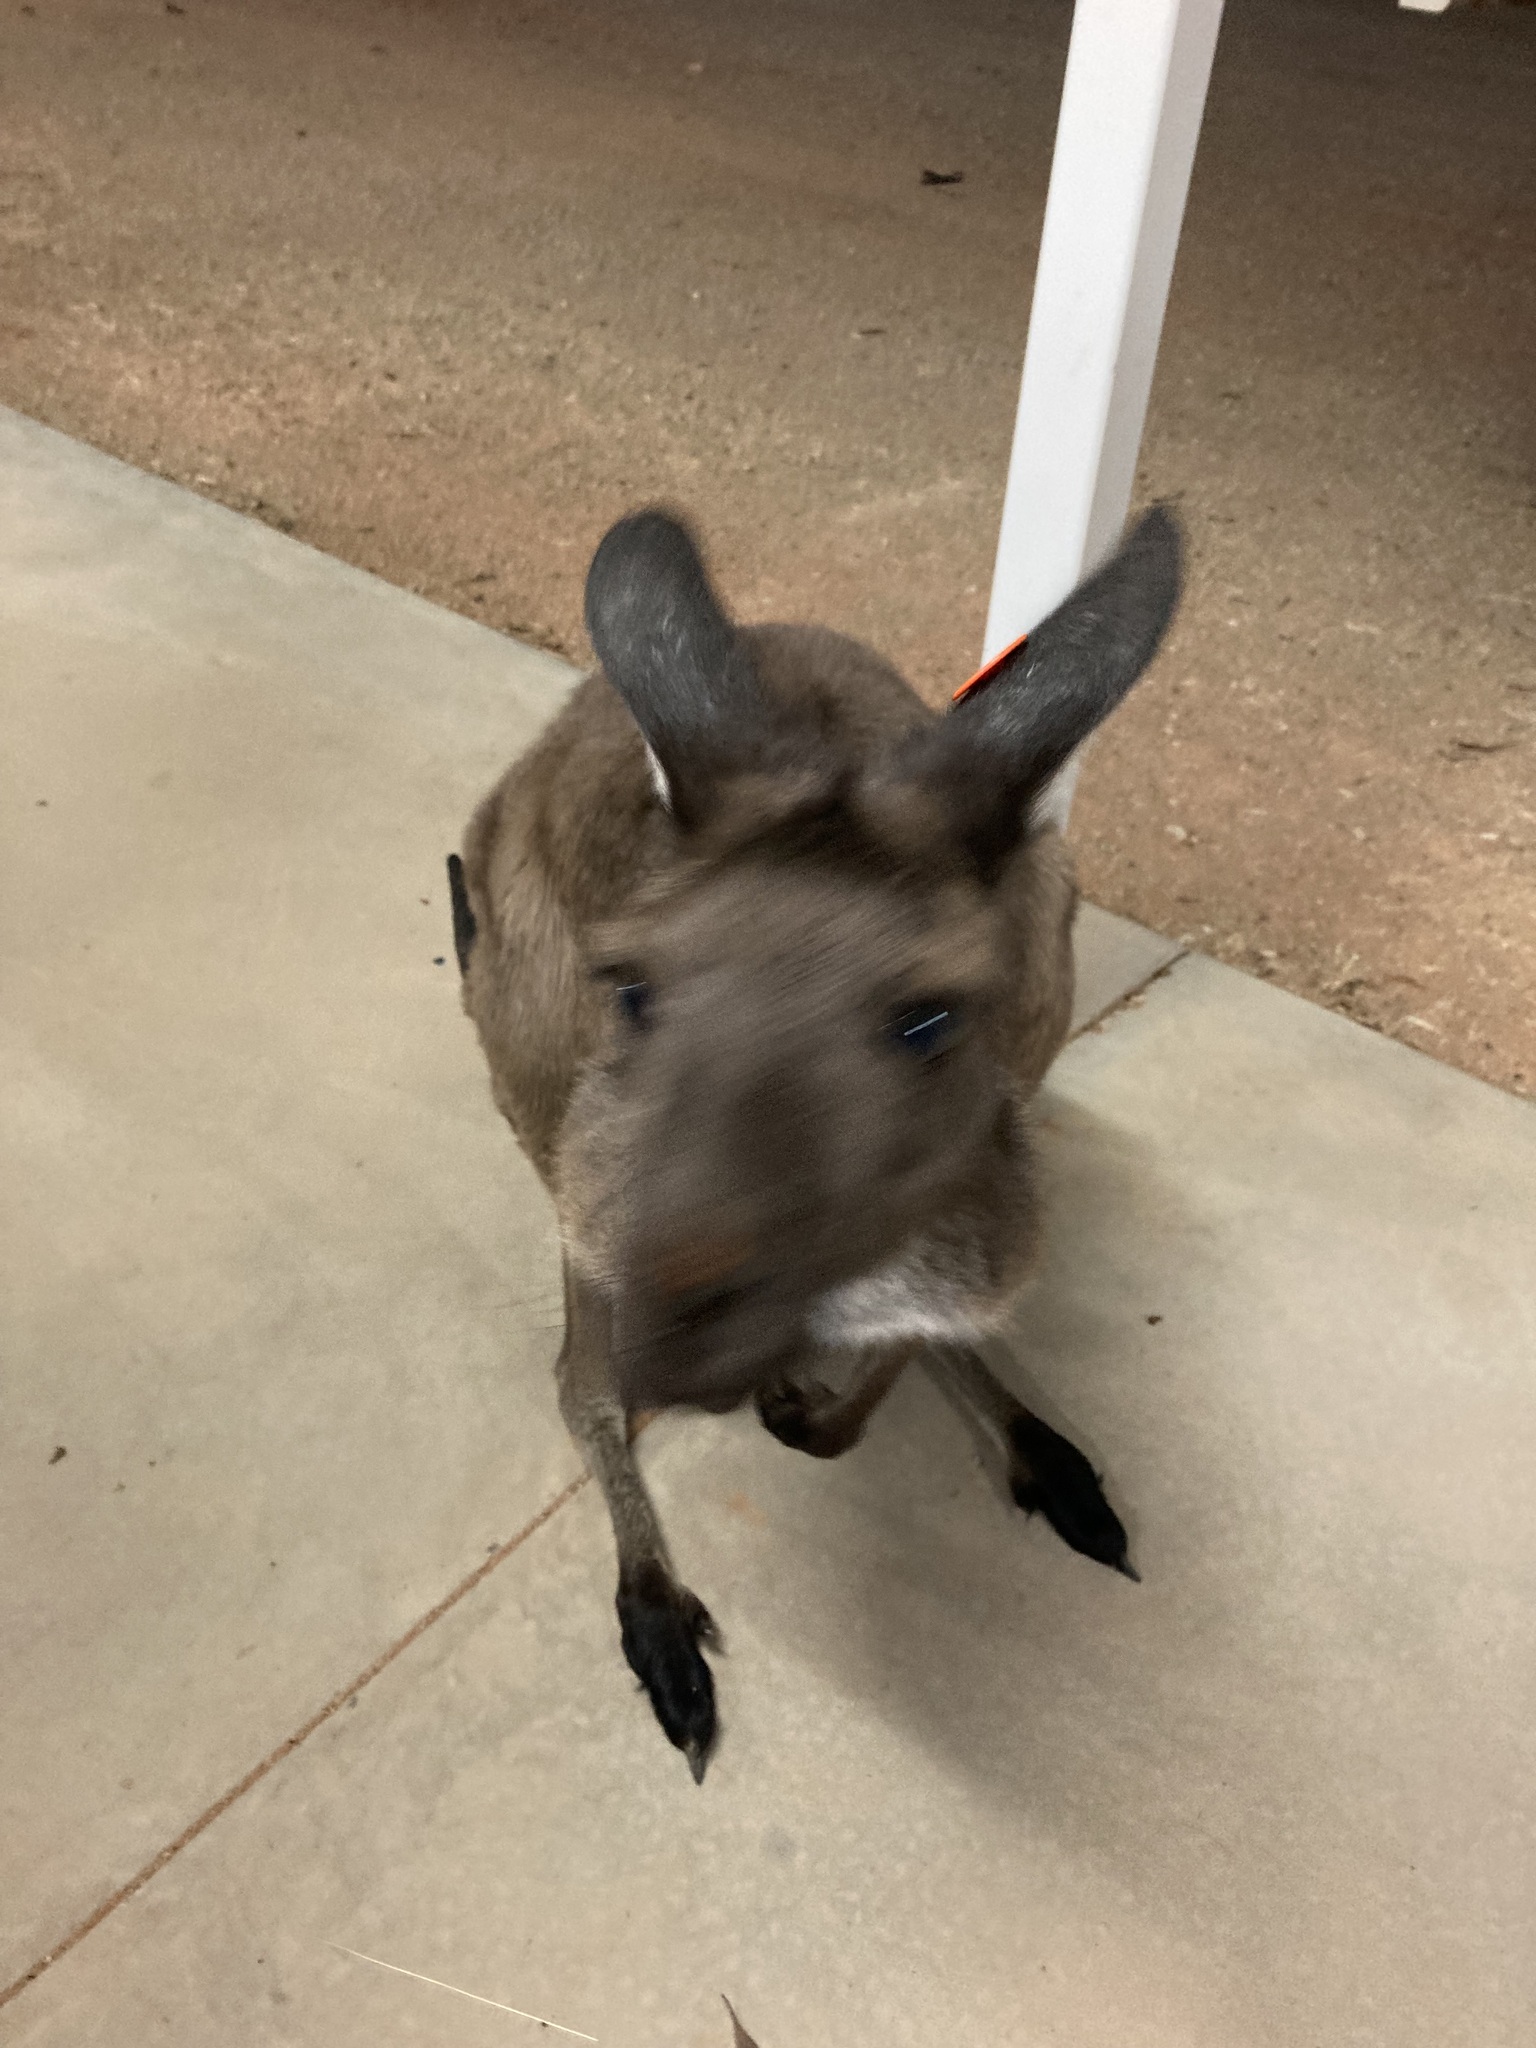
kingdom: Animalia
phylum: Chordata
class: Mammalia
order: Diprotodontia
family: Macropodidae
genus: Macropus
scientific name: Macropus fuliginosus
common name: Western grey kangaroo
